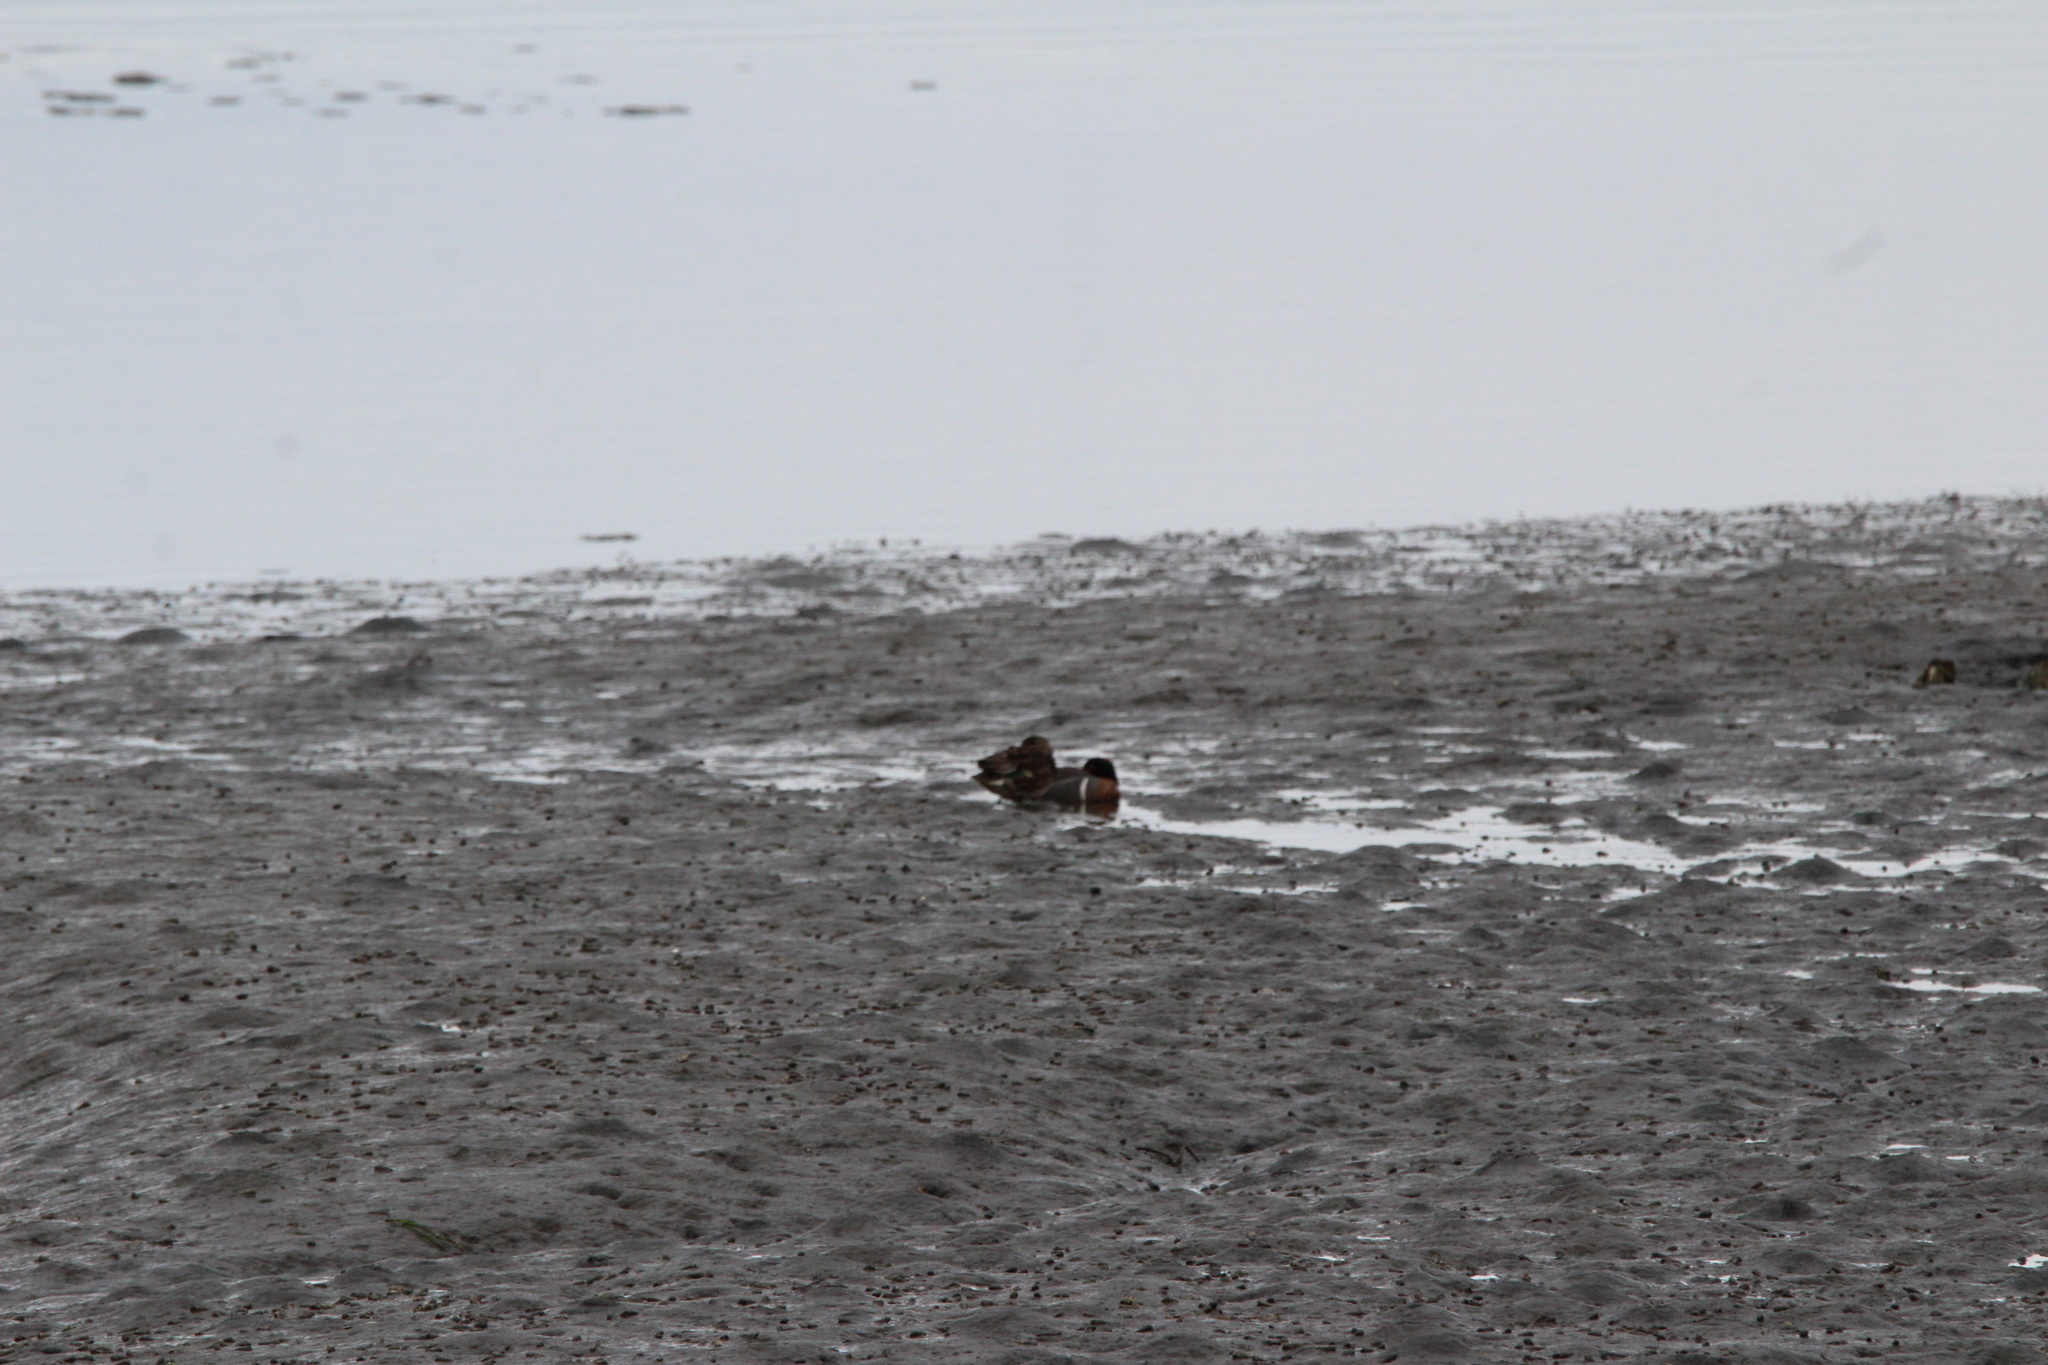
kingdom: Animalia
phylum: Chordata
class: Aves
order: Anseriformes
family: Anatidae
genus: Anas
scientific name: Anas carolinensis
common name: Green-winged teal
